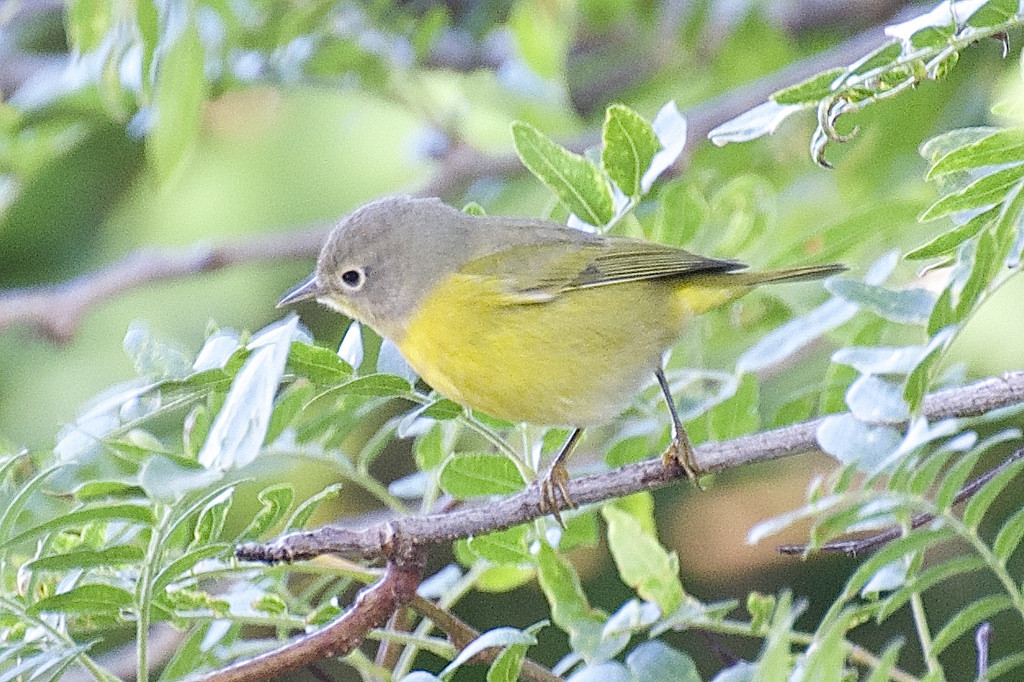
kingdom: Animalia
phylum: Chordata
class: Aves
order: Passeriformes
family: Parulidae
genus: Leiothlypis
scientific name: Leiothlypis ruficapilla
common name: Nashville warbler
